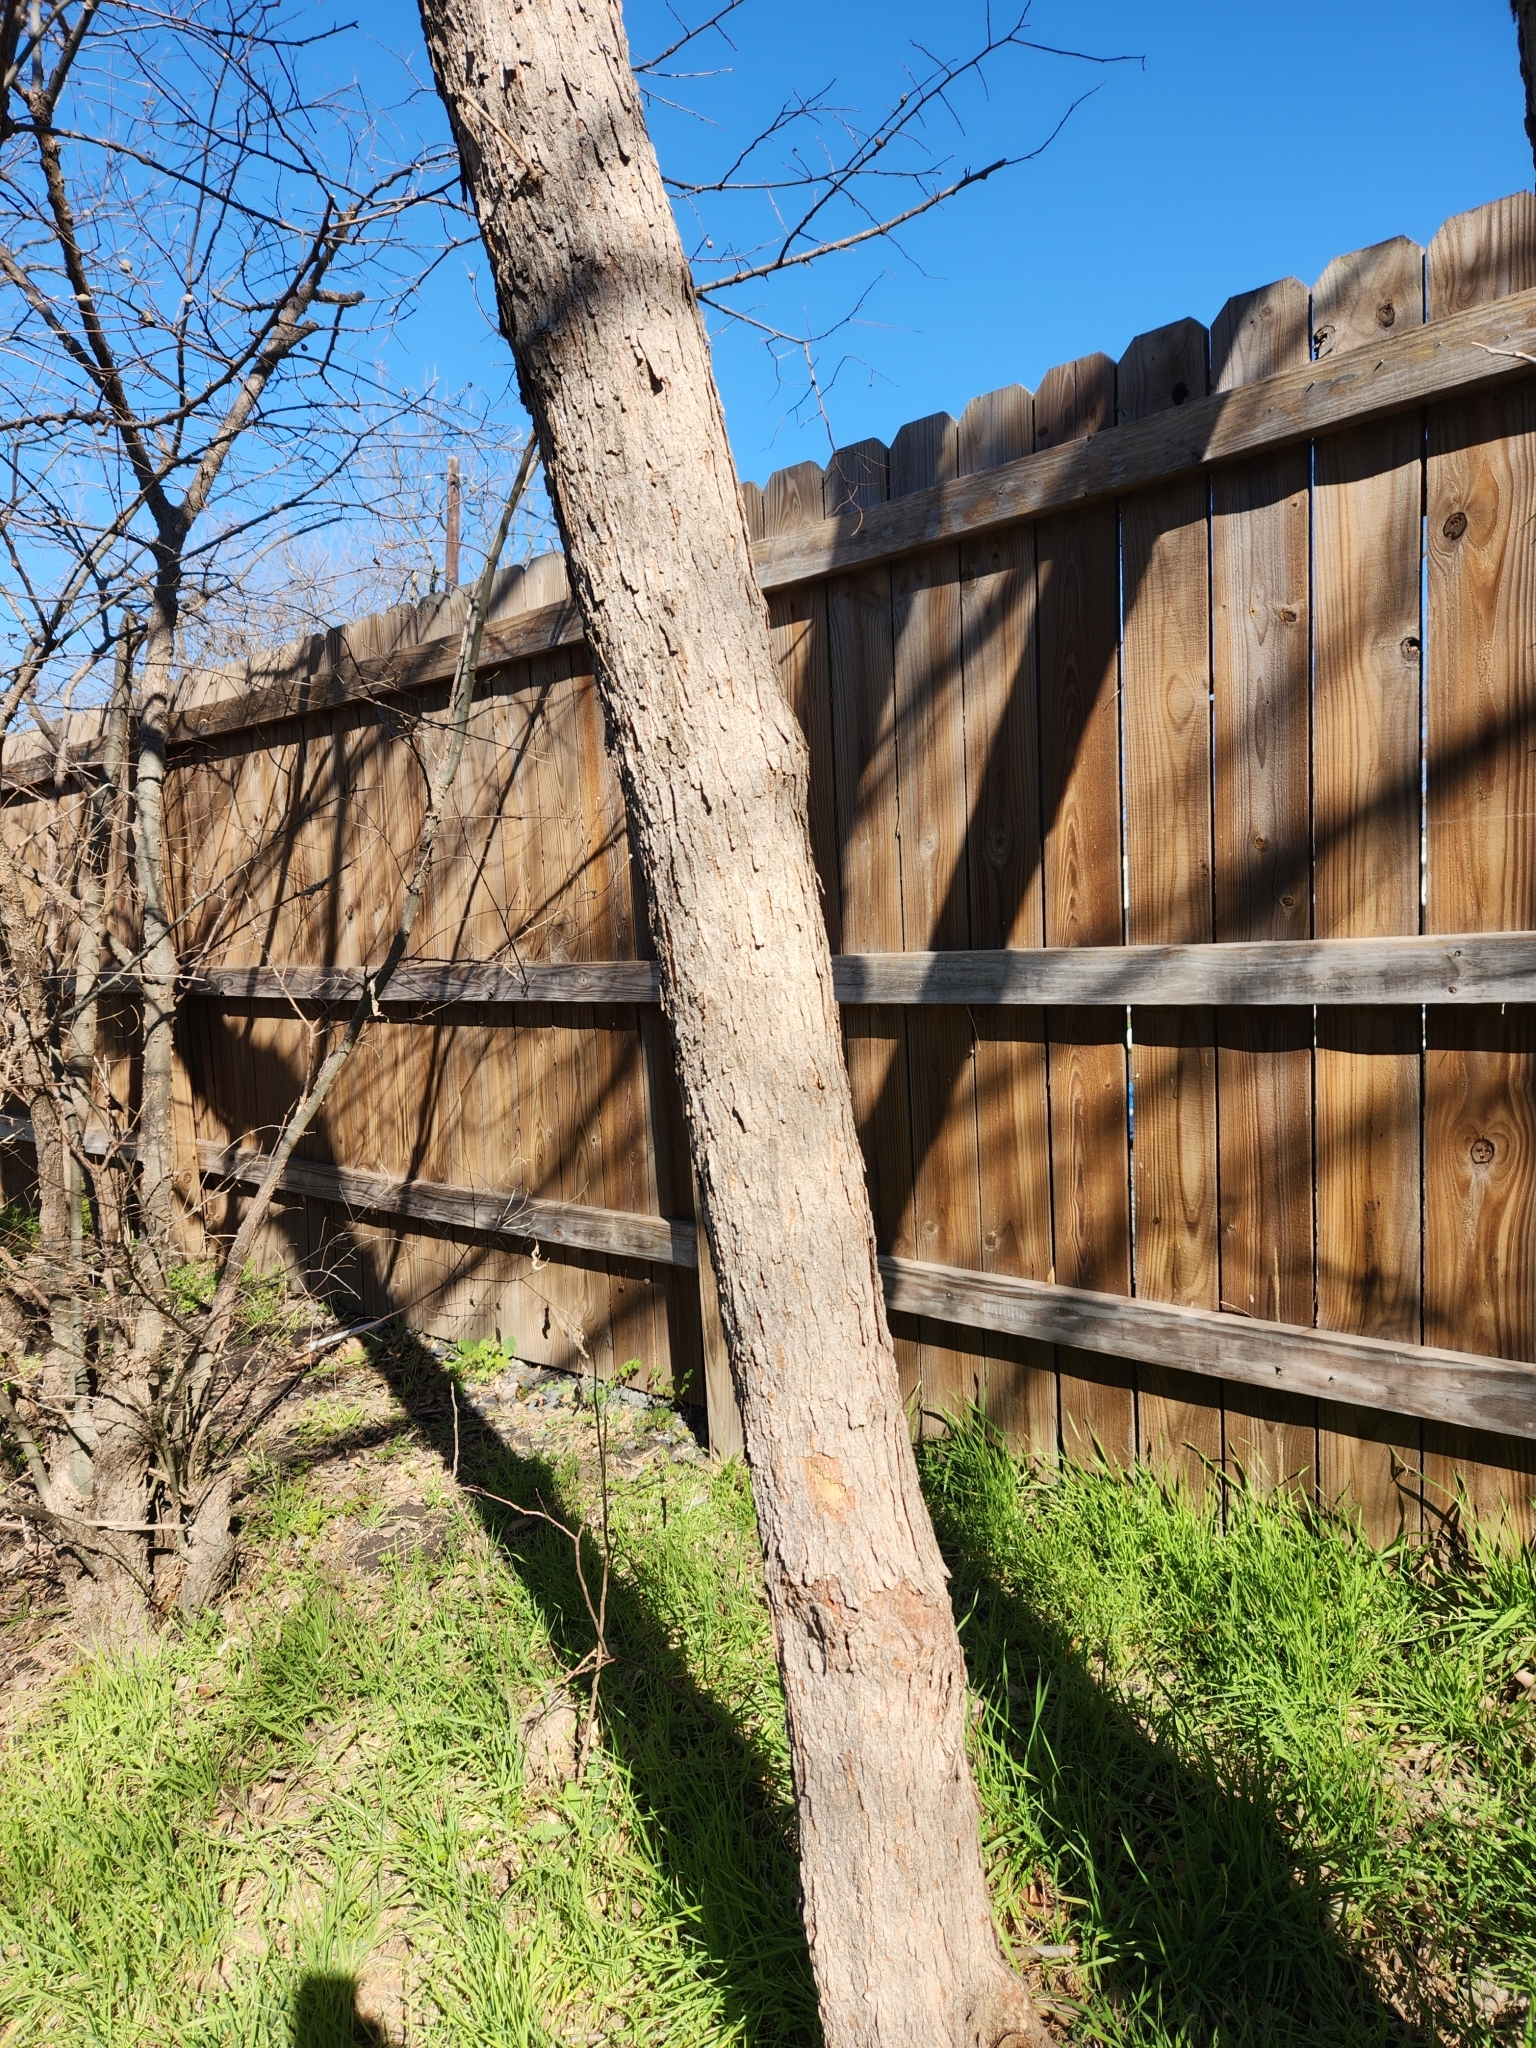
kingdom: Plantae
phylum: Tracheophyta
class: Magnoliopsida
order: Sapindales
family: Sapindaceae
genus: Sapindus
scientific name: Sapindus drummondii
